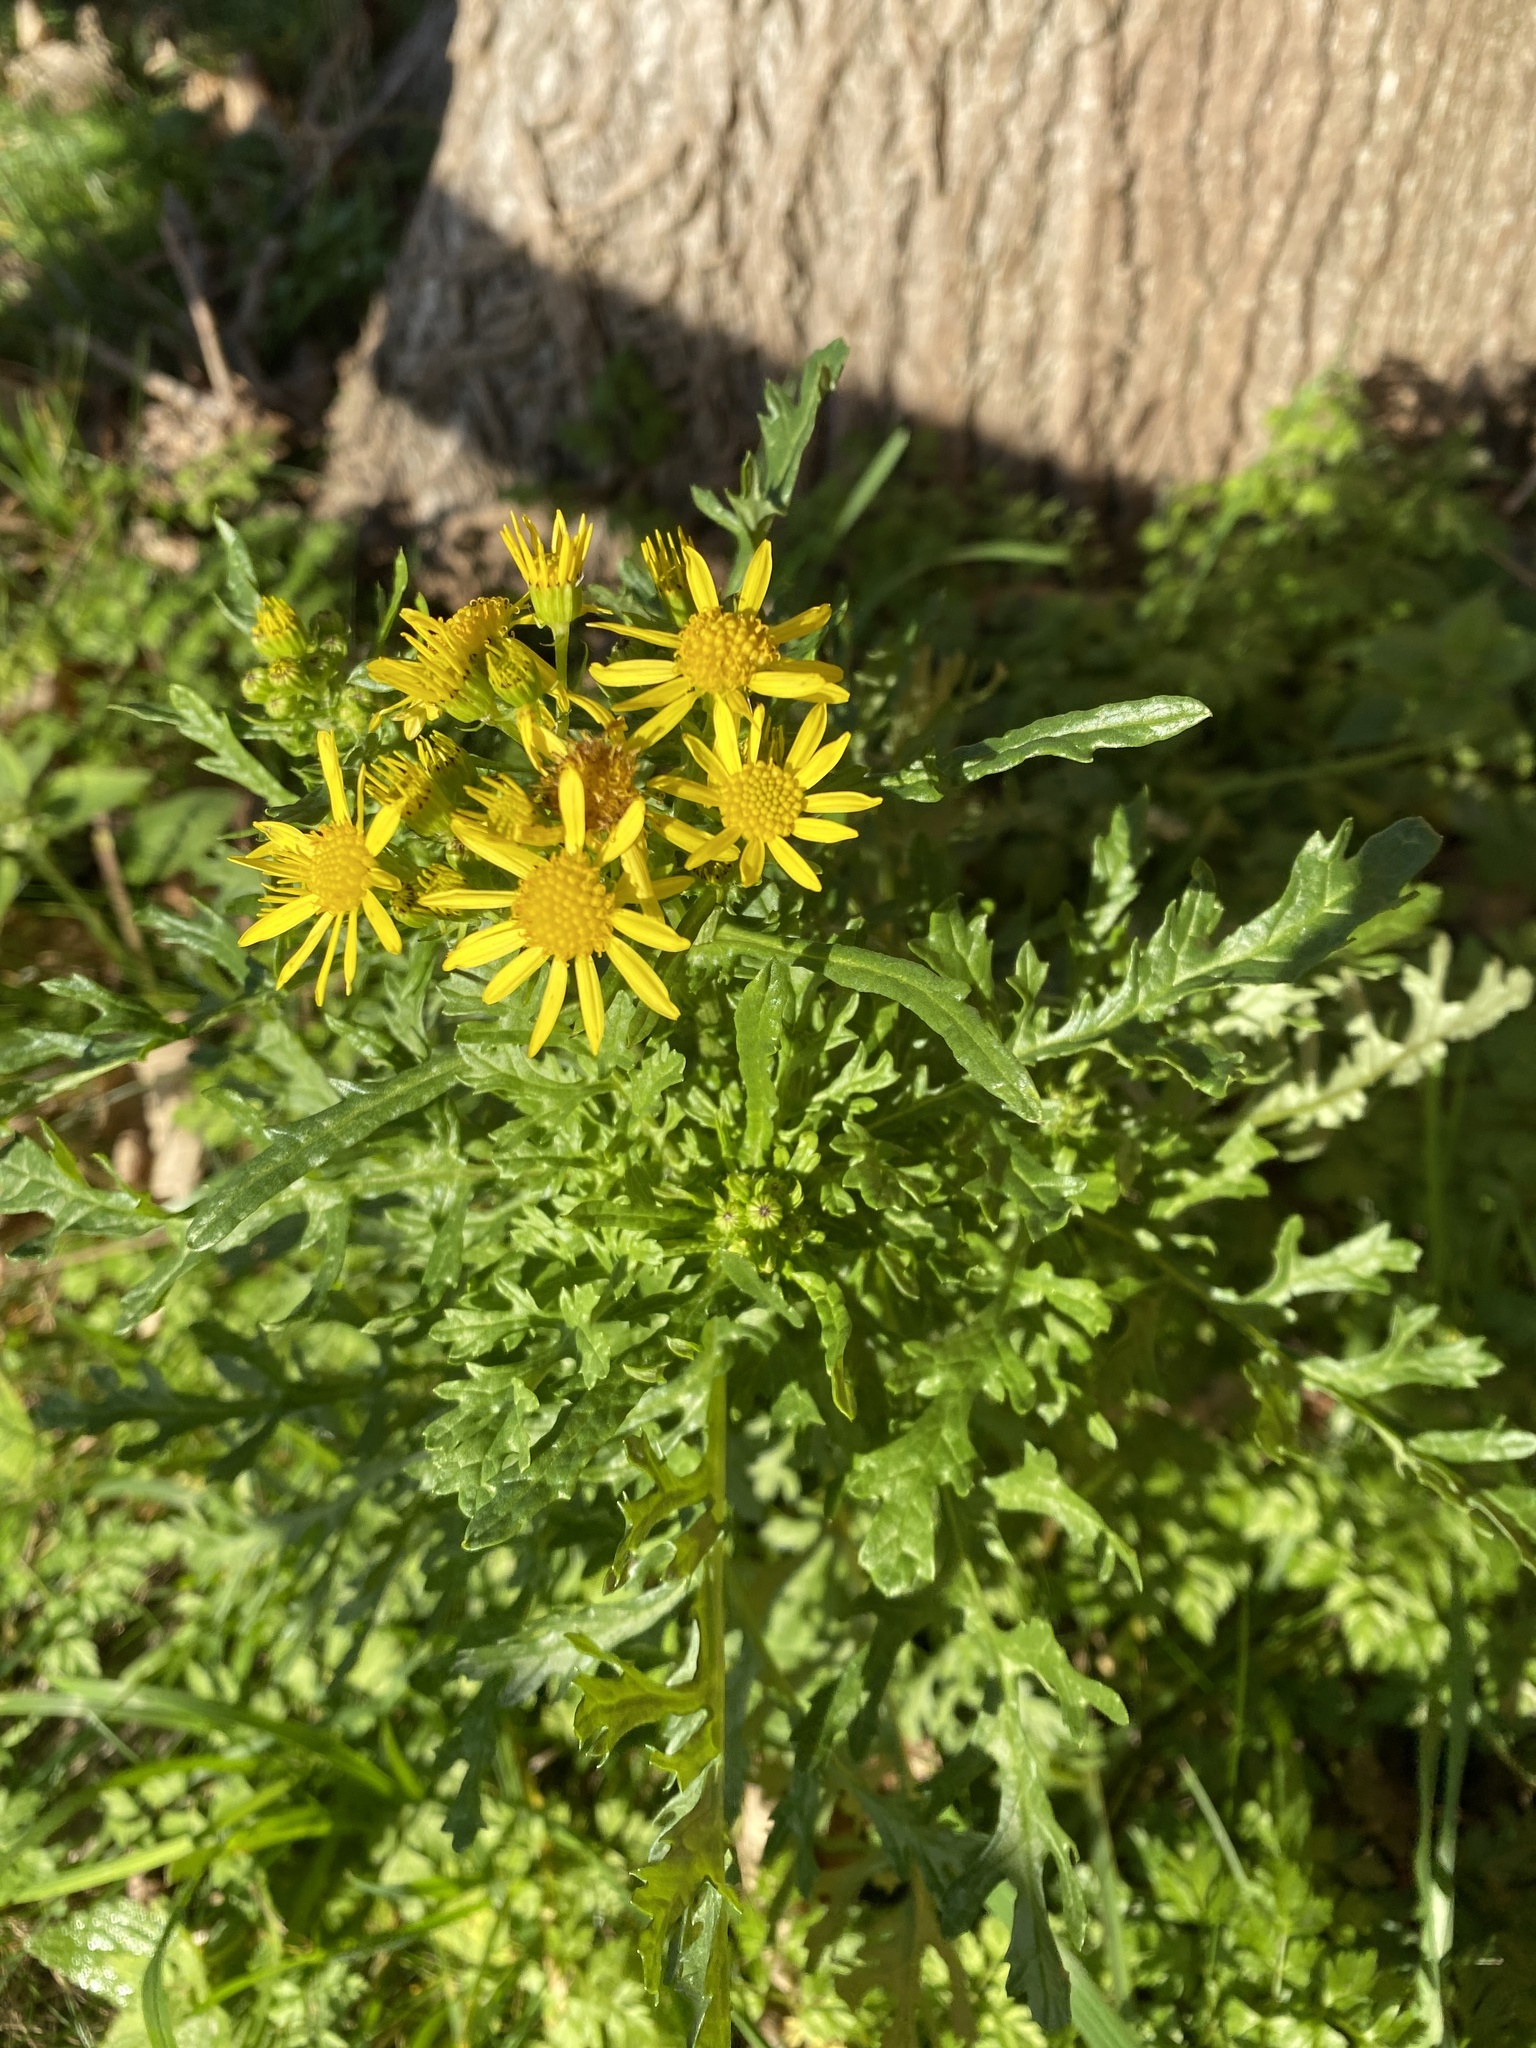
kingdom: Plantae
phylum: Tracheophyta
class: Magnoliopsida
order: Asterales
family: Asteraceae
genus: Jacobaea
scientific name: Jacobaea vulgaris
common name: Stinking willie
